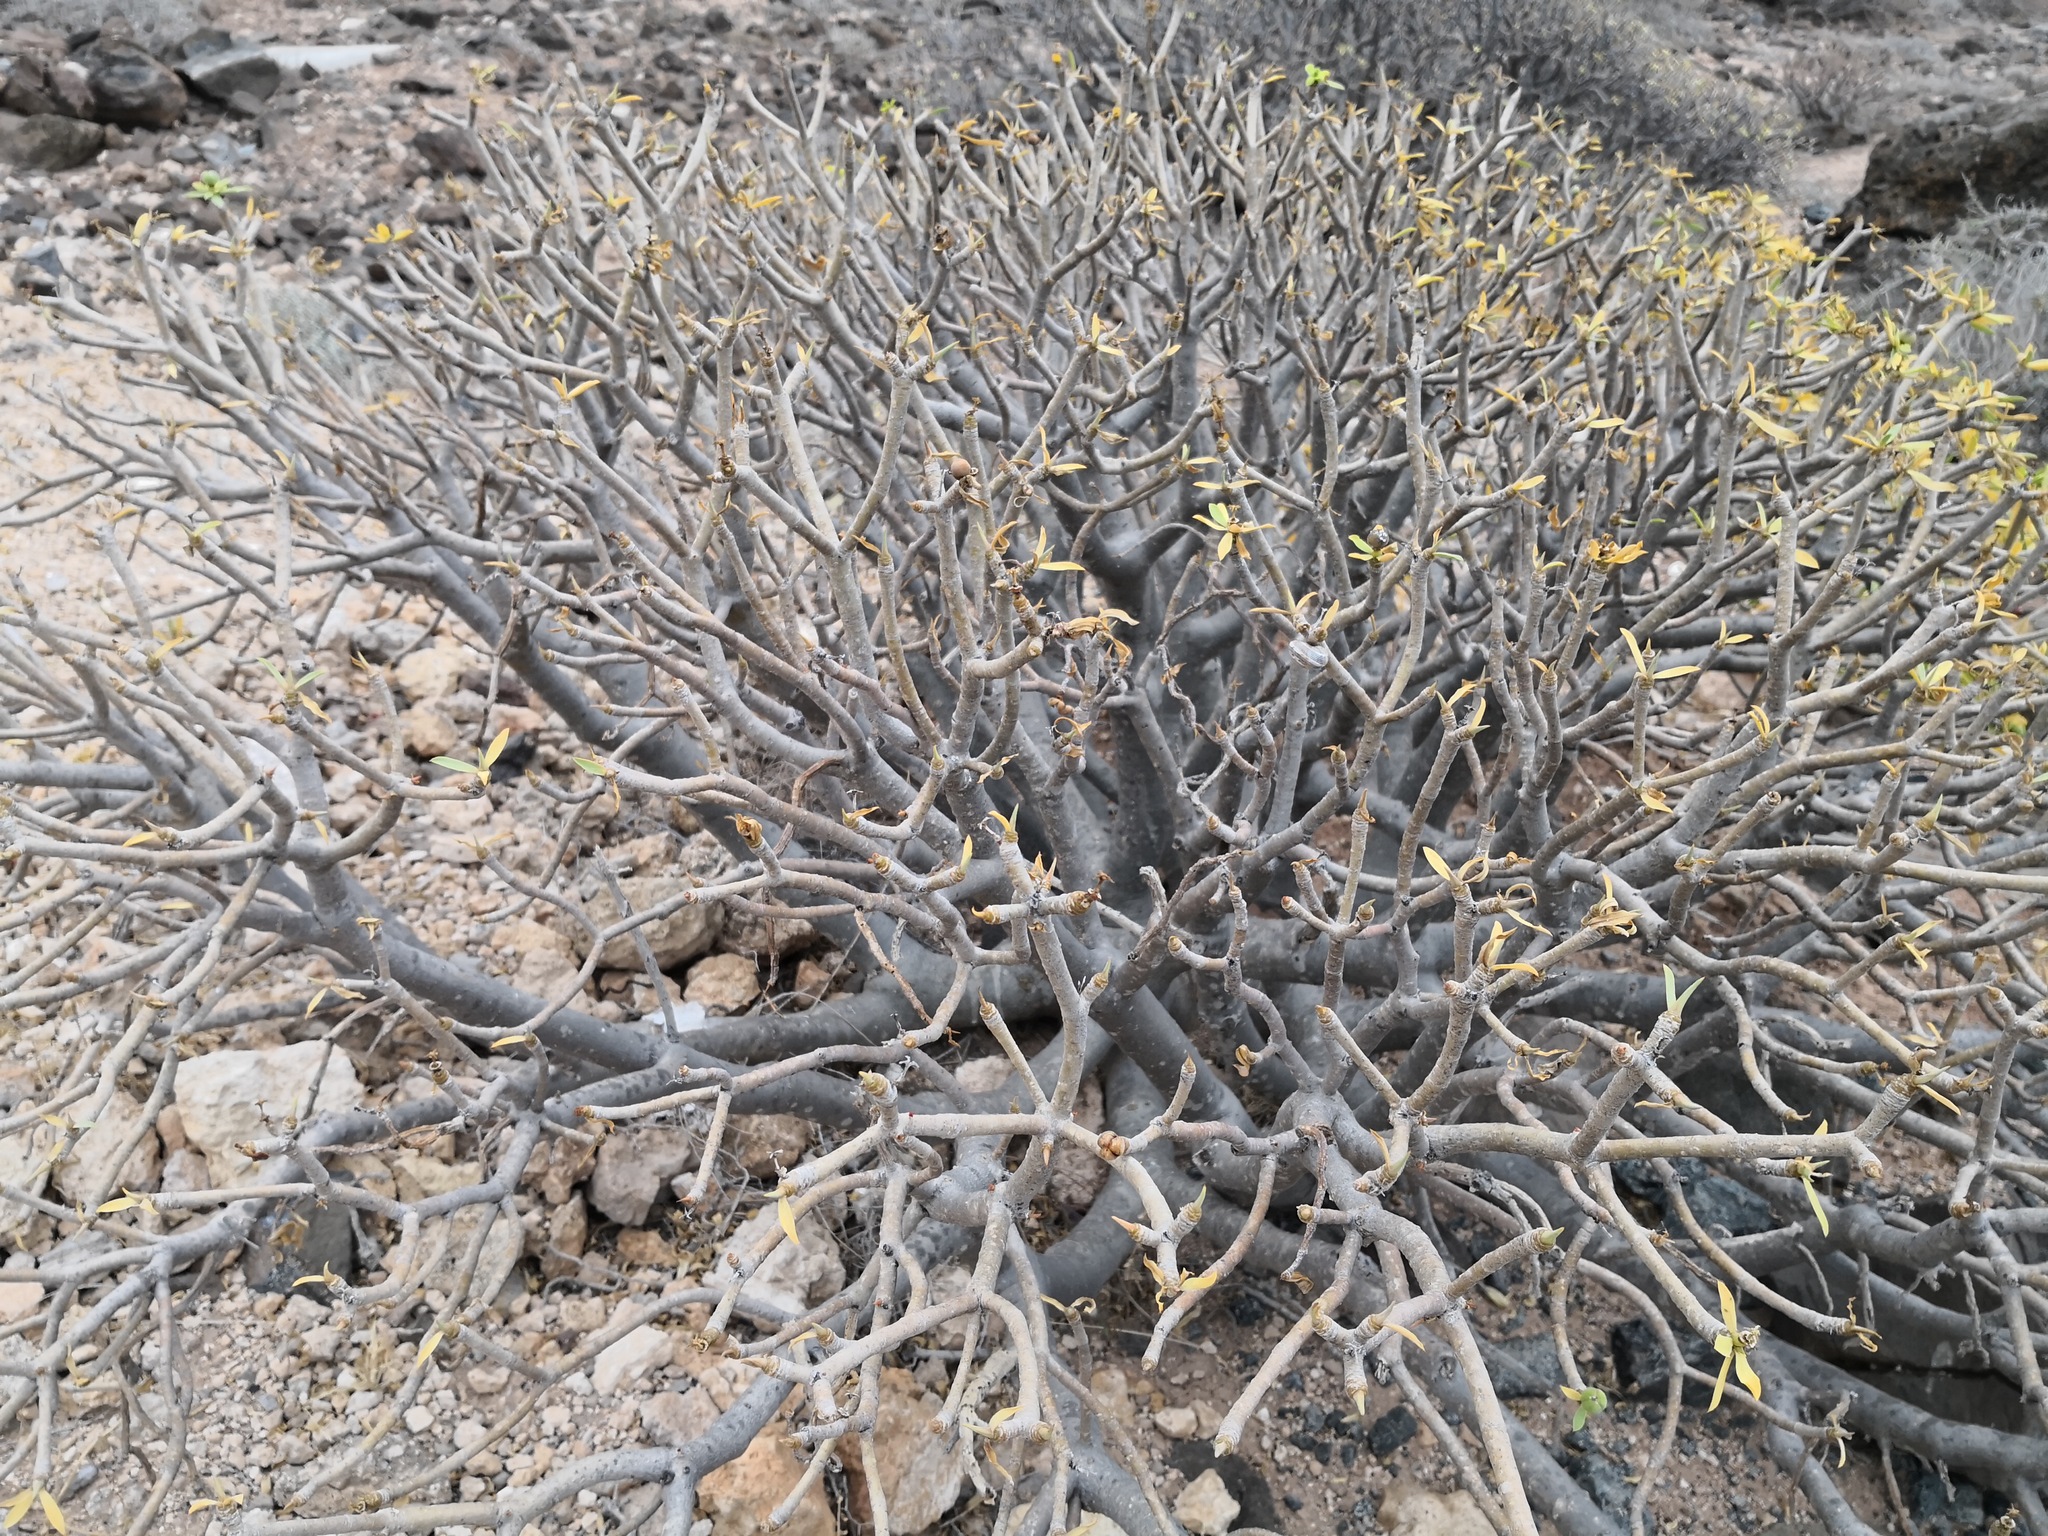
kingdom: Plantae
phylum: Tracheophyta
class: Magnoliopsida
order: Malpighiales
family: Euphorbiaceae
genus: Euphorbia
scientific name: Euphorbia regis-jubae
